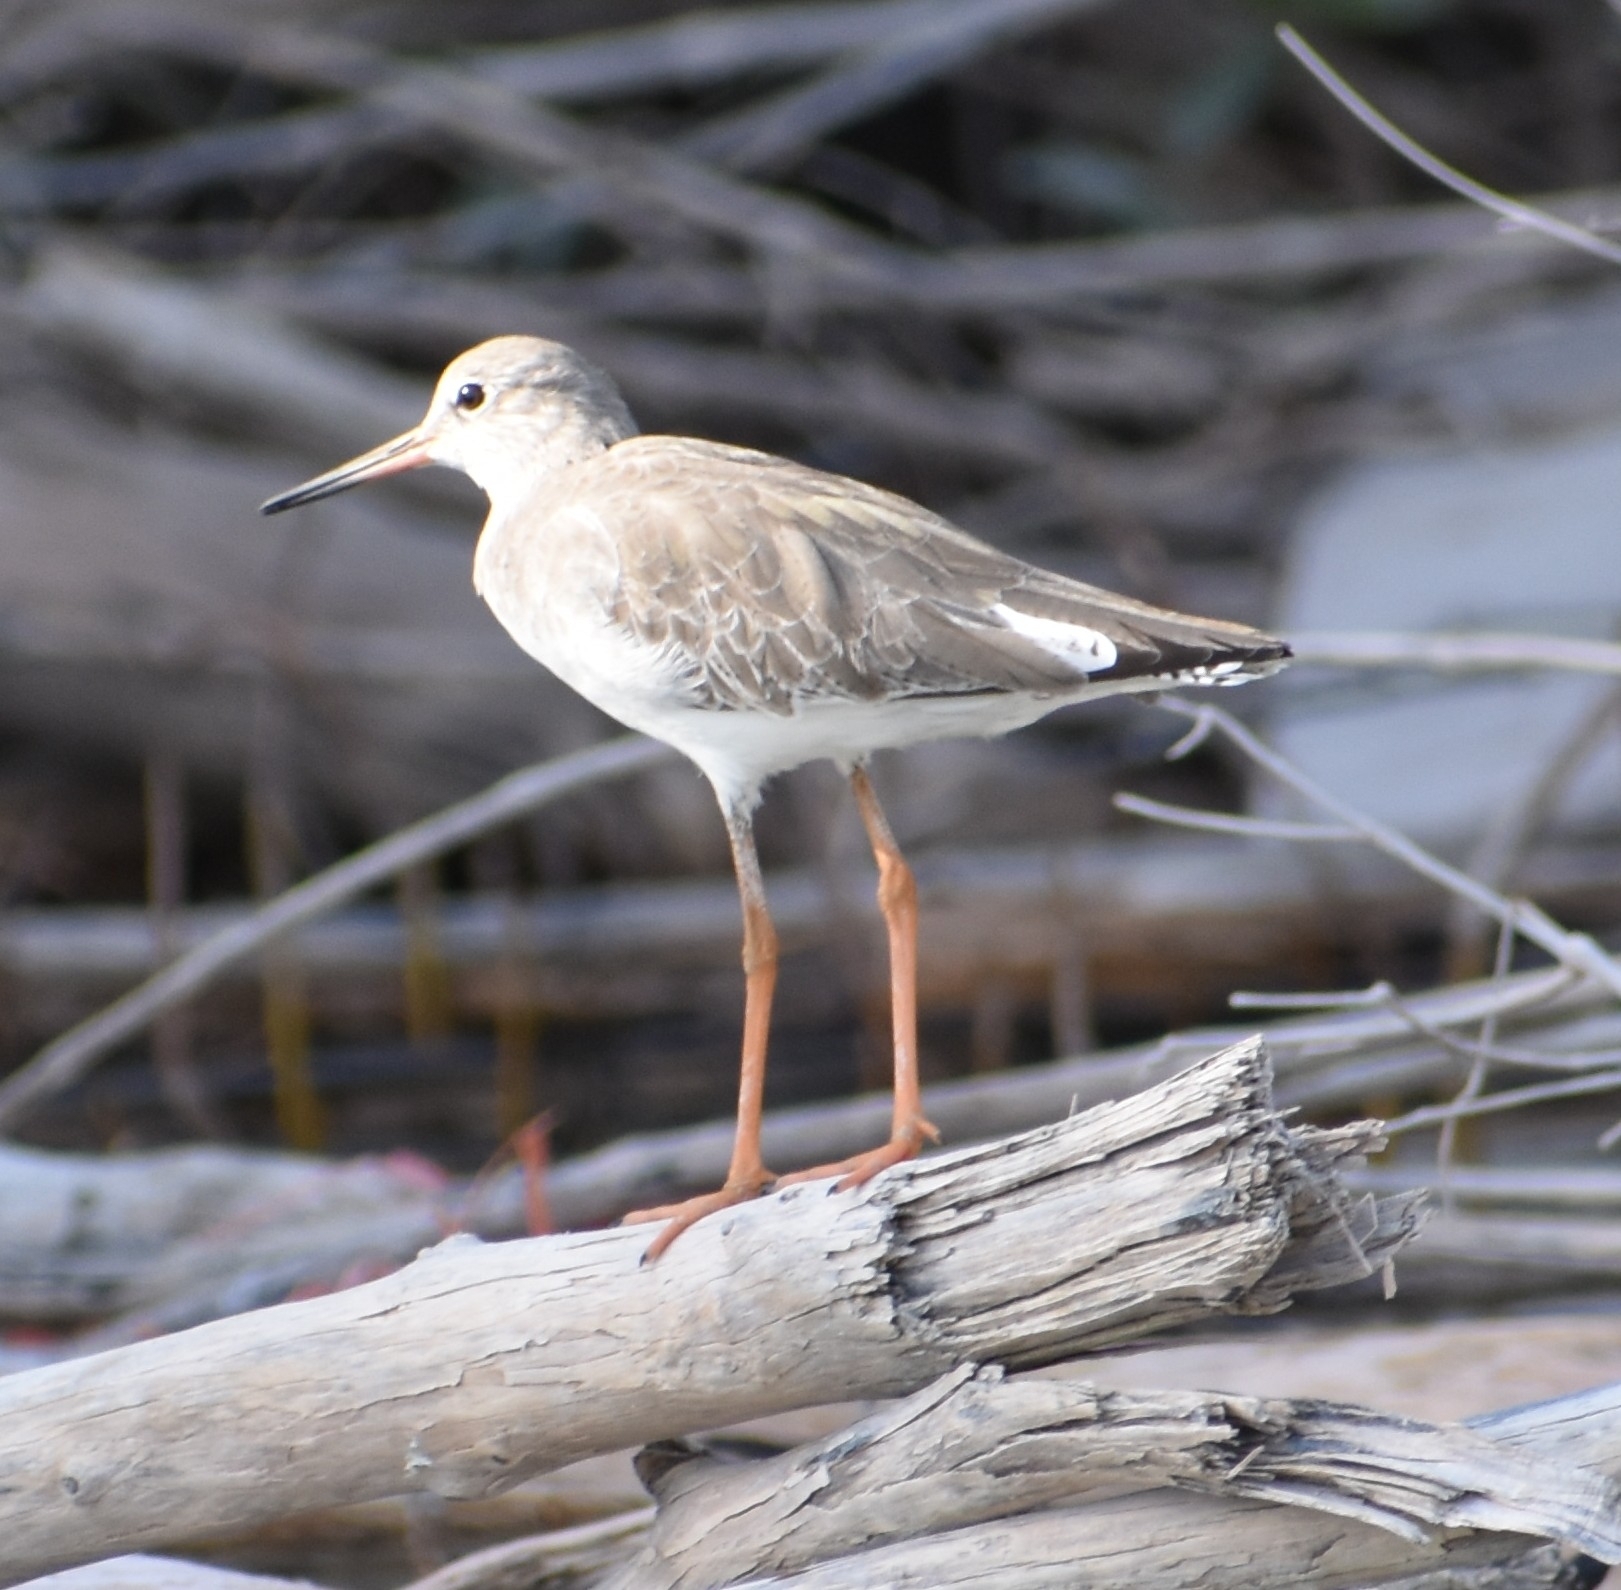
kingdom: Animalia
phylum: Chordata
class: Aves
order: Charadriiformes
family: Scolopacidae
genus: Tringa
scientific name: Tringa totanus
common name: Common redshank
